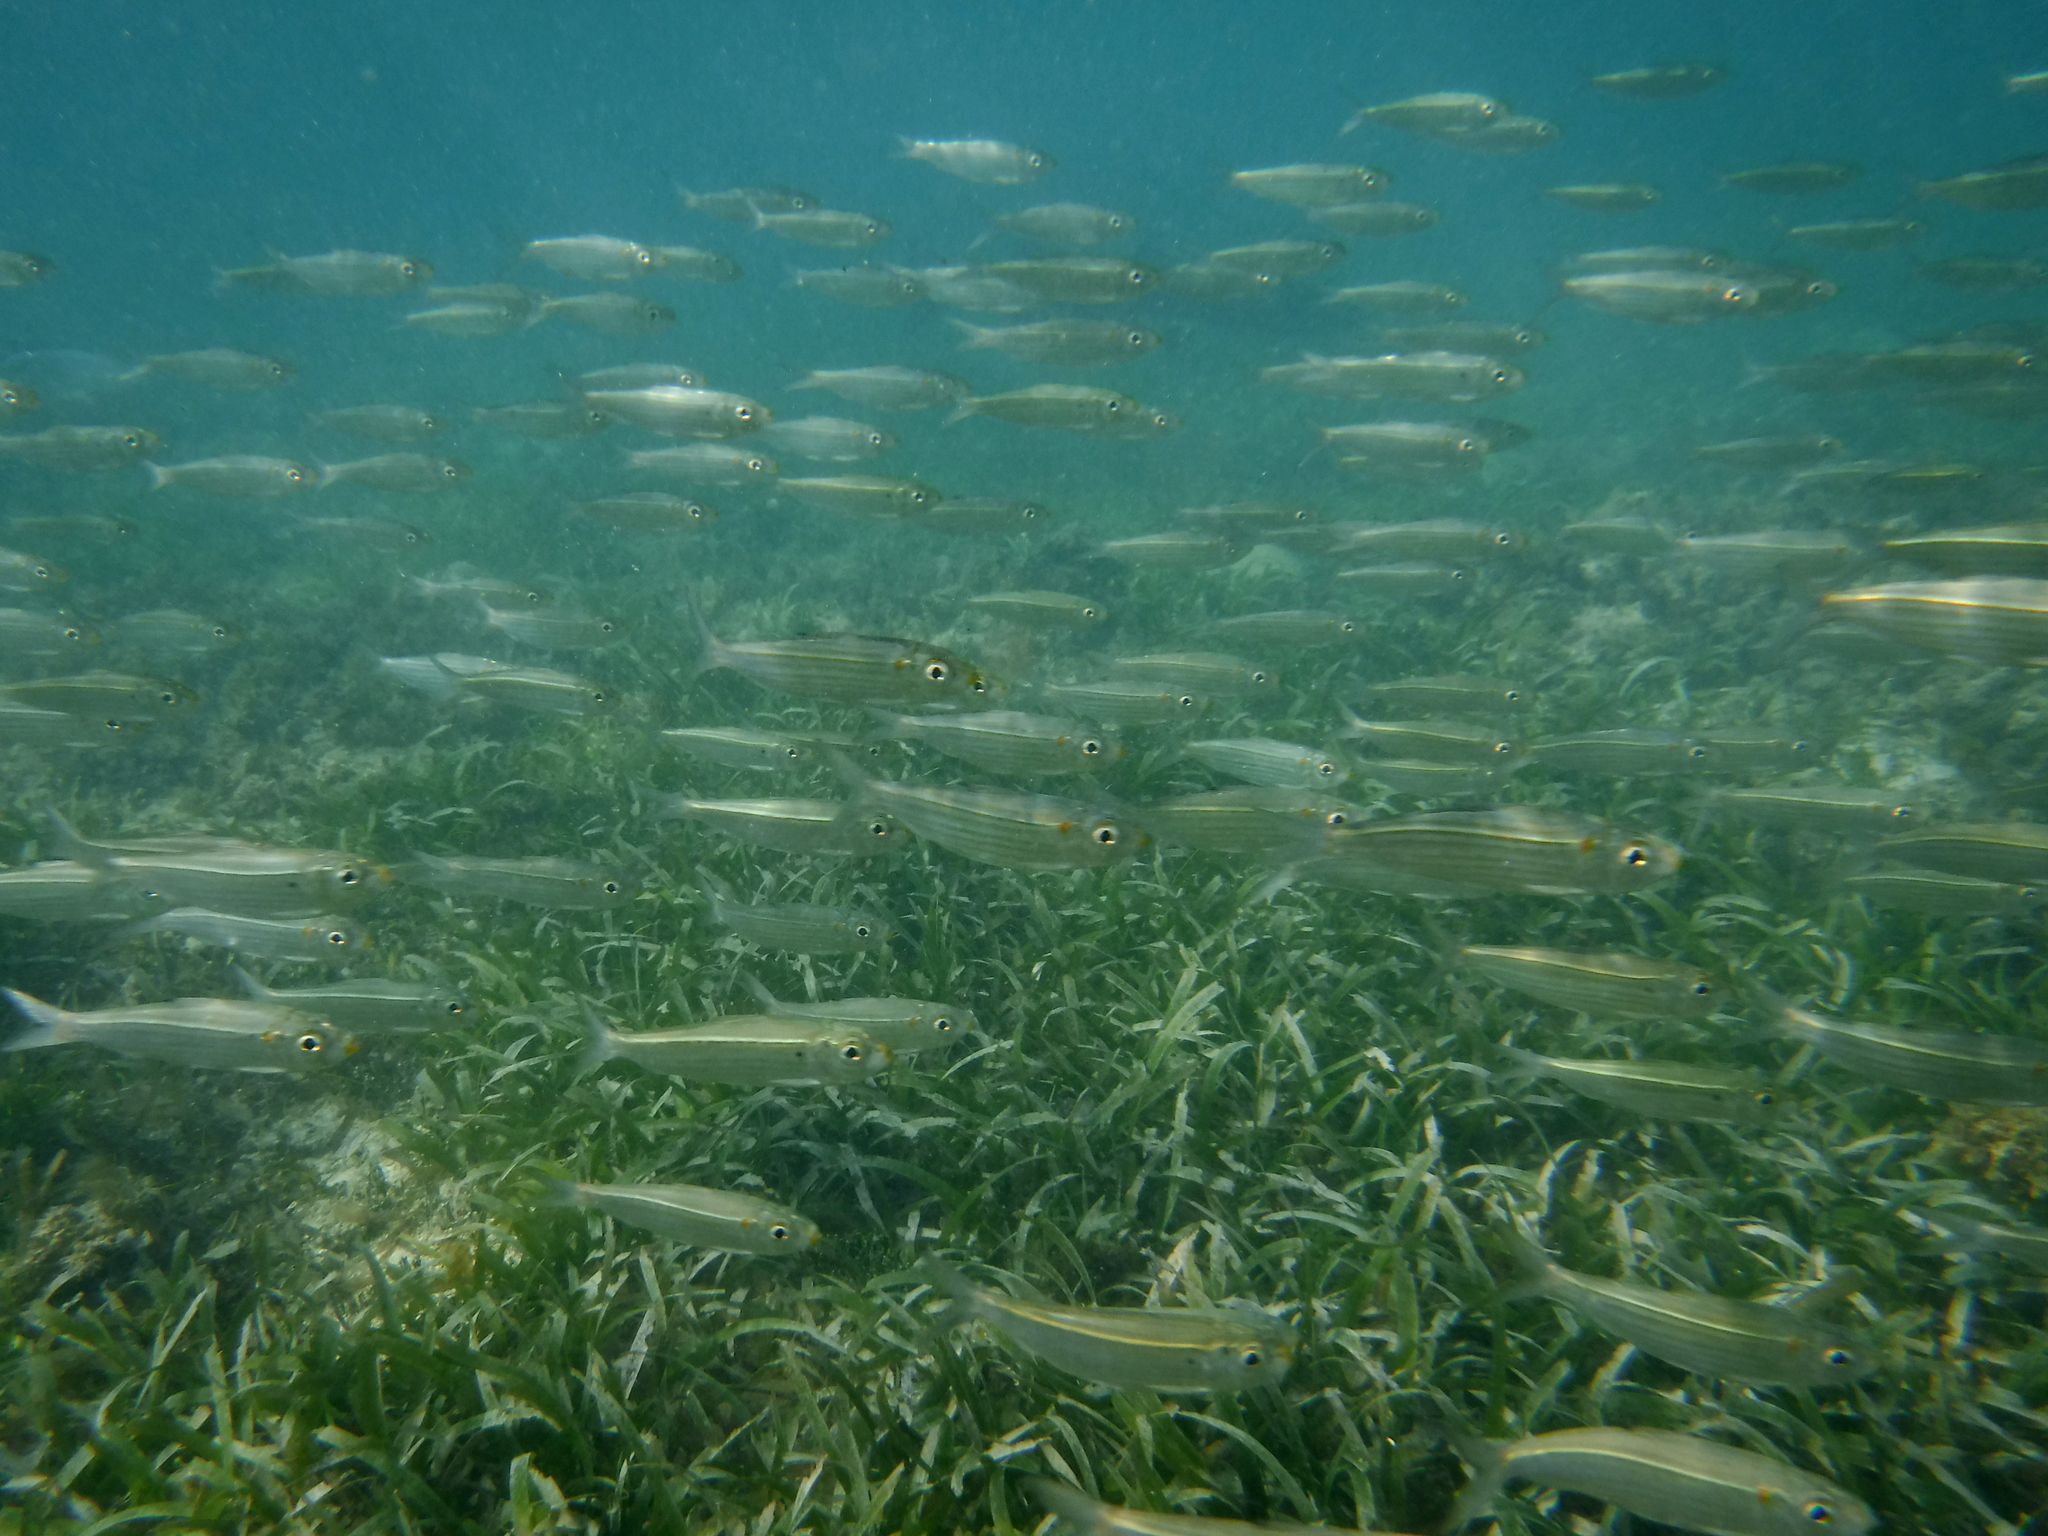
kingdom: Animalia
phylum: Chordata
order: Clupeiformes
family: Clupeidae
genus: Harengula
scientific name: Harengula humeralis
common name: Red-ear pilchard
